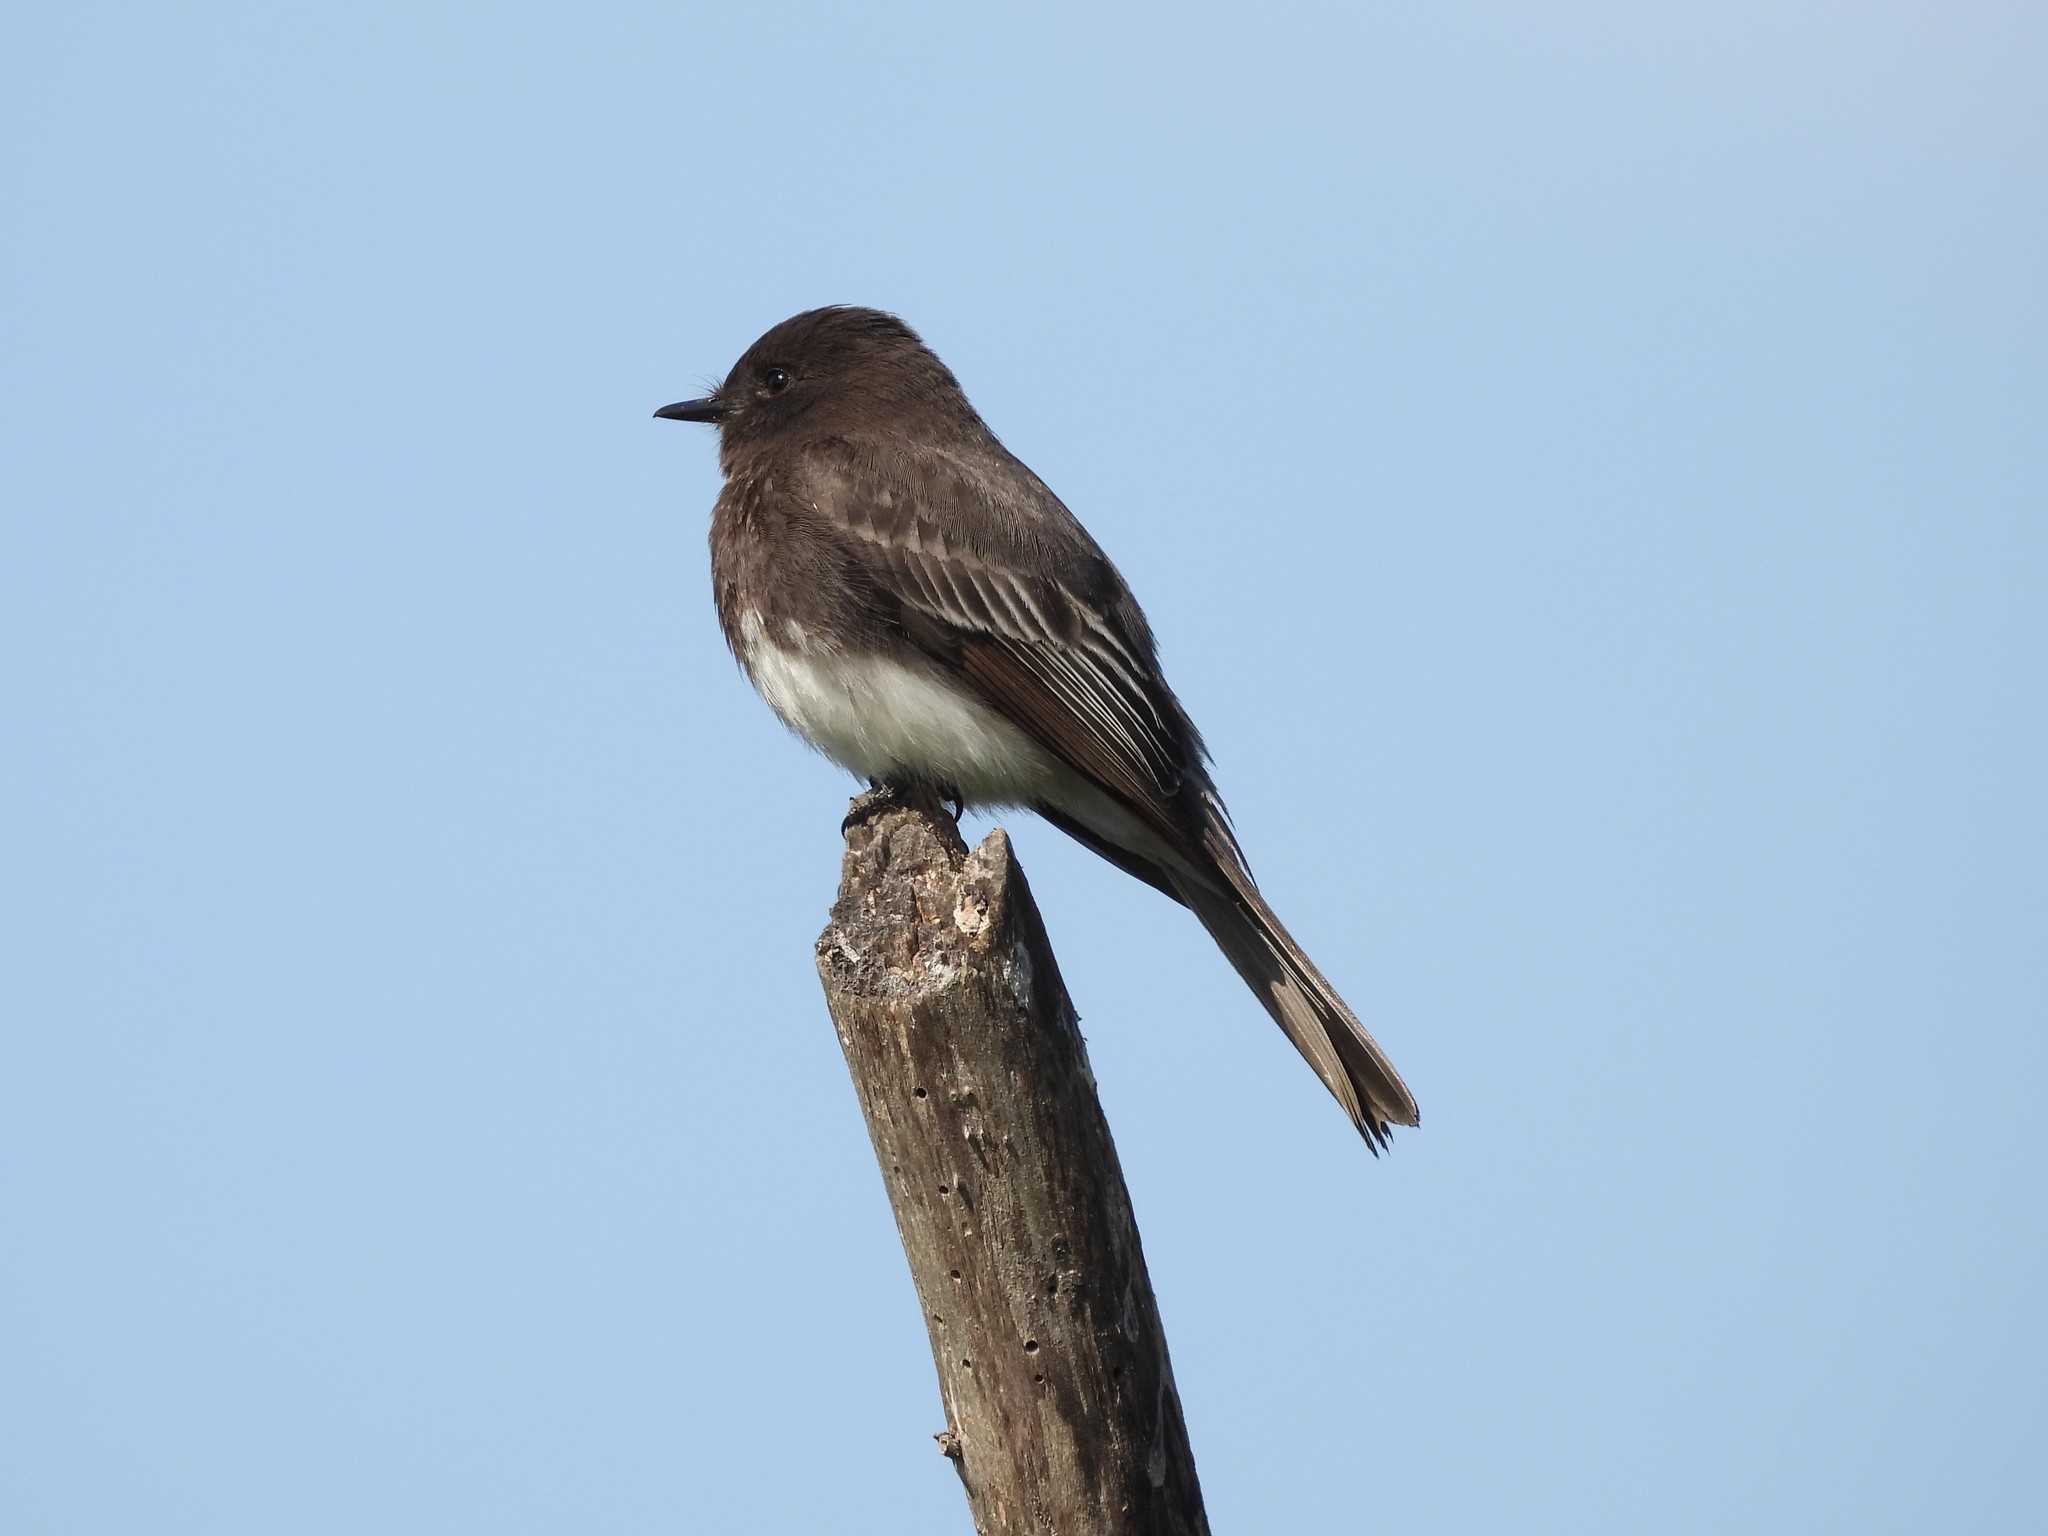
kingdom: Animalia
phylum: Chordata
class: Aves
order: Passeriformes
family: Tyrannidae
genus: Sayornis
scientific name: Sayornis nigricans
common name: Black phoebe
